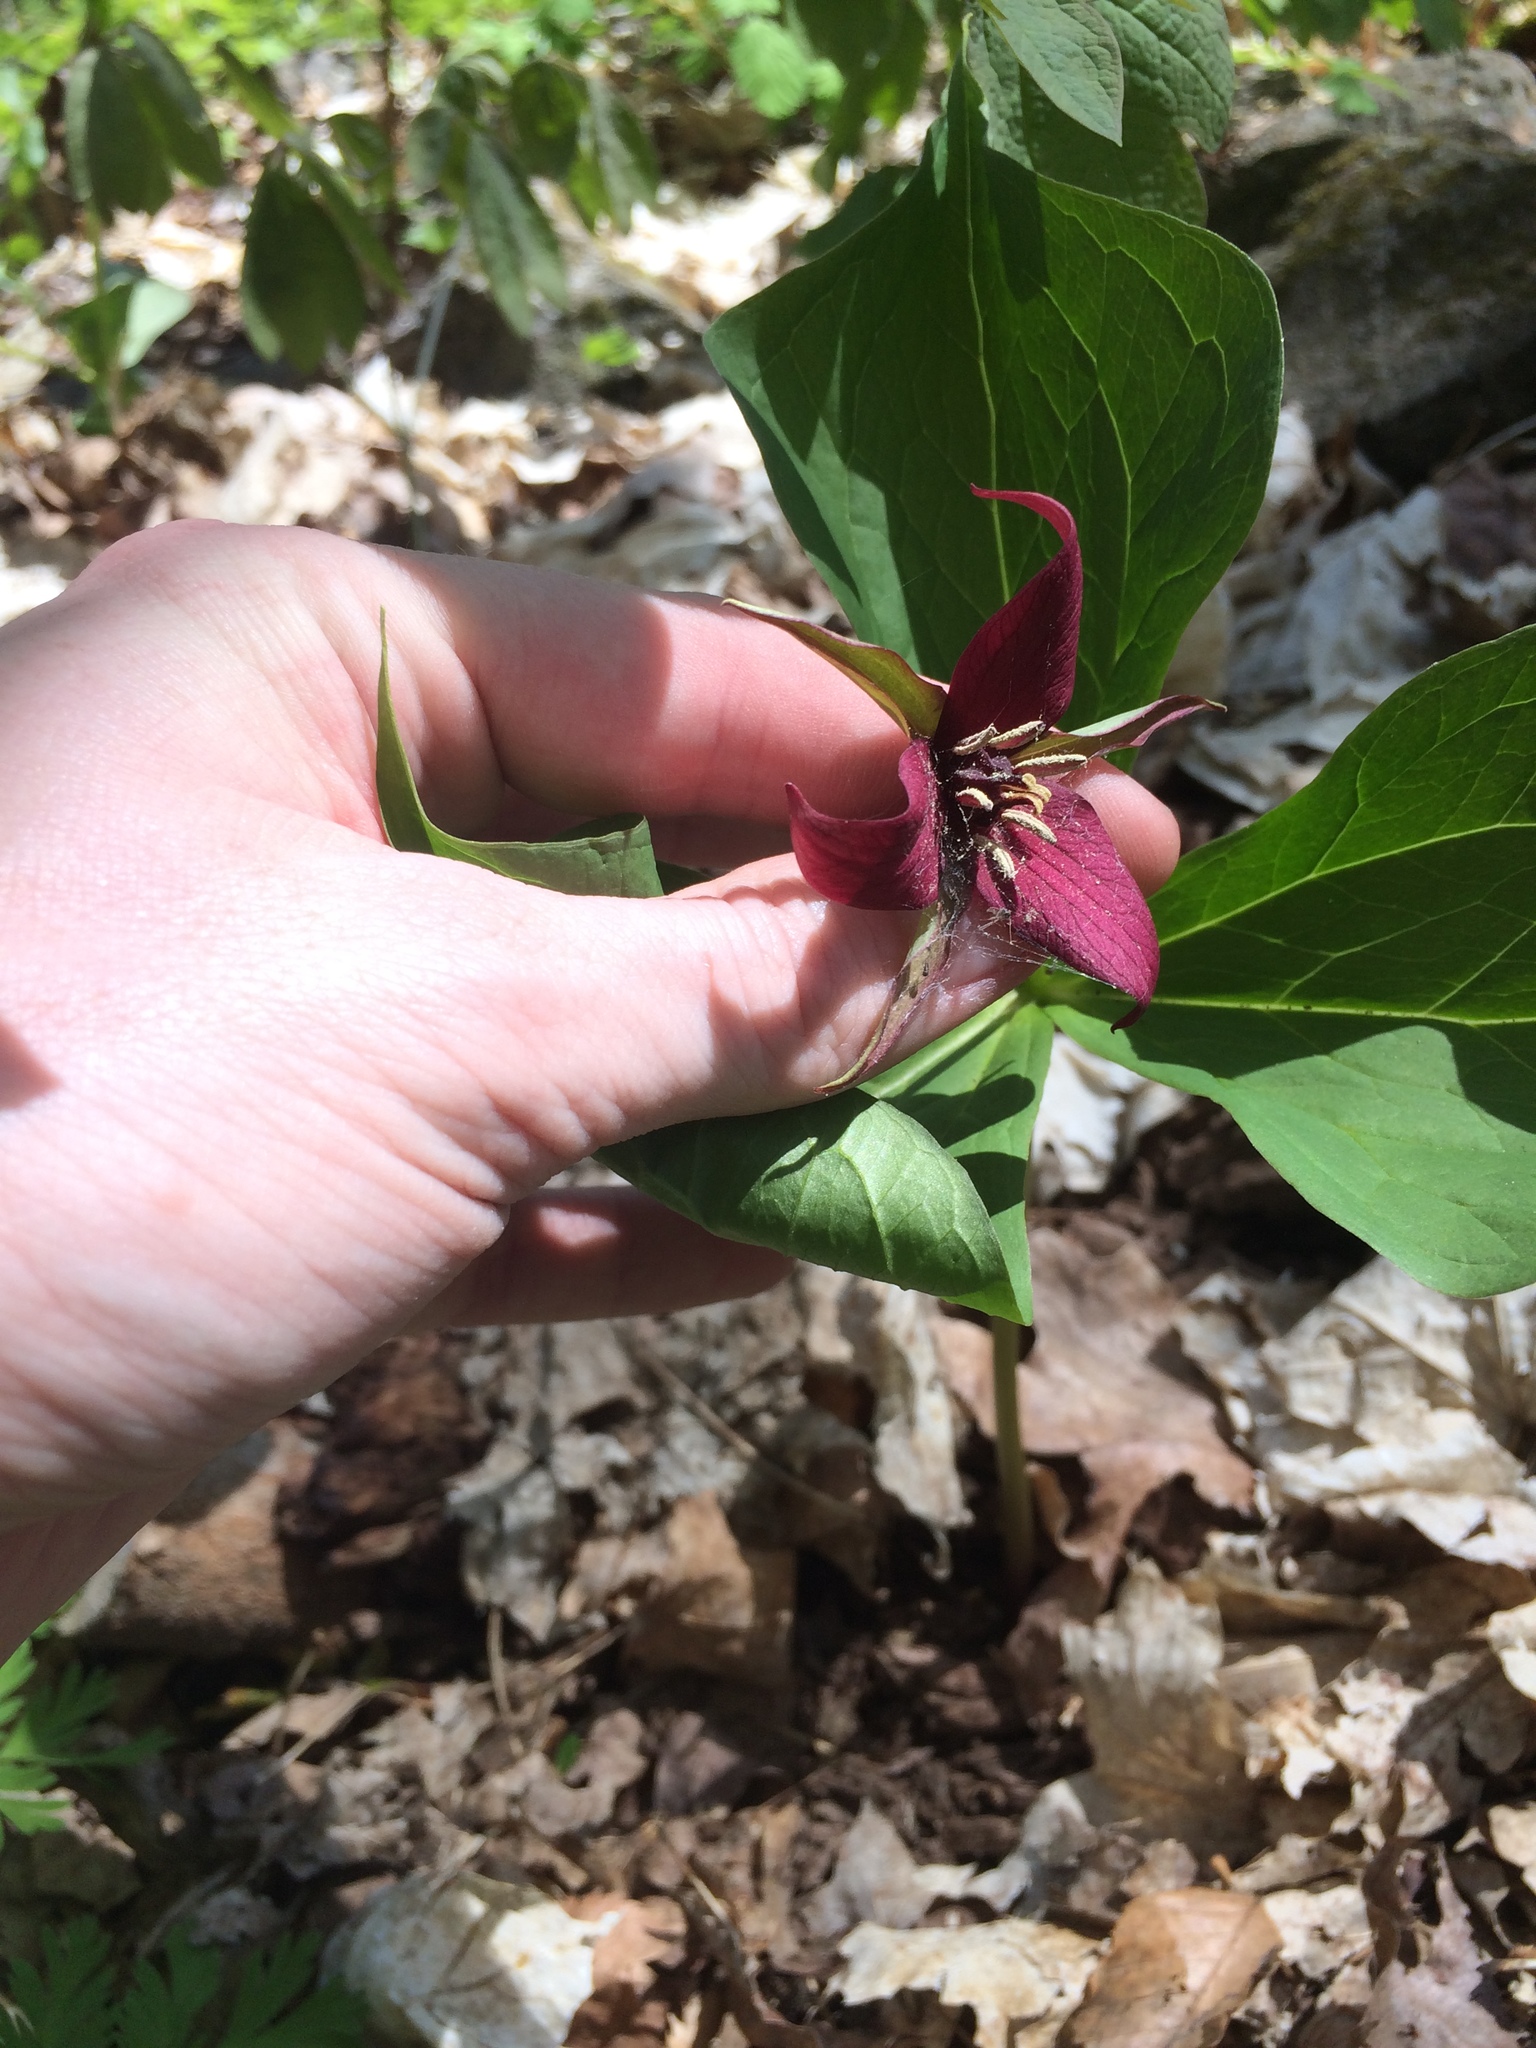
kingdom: Plantae
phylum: Tracheophyta
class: Liliopsida
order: Liliales
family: Melanthiaceae
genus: Trillium
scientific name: Trillium erectum
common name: Purple trillium
